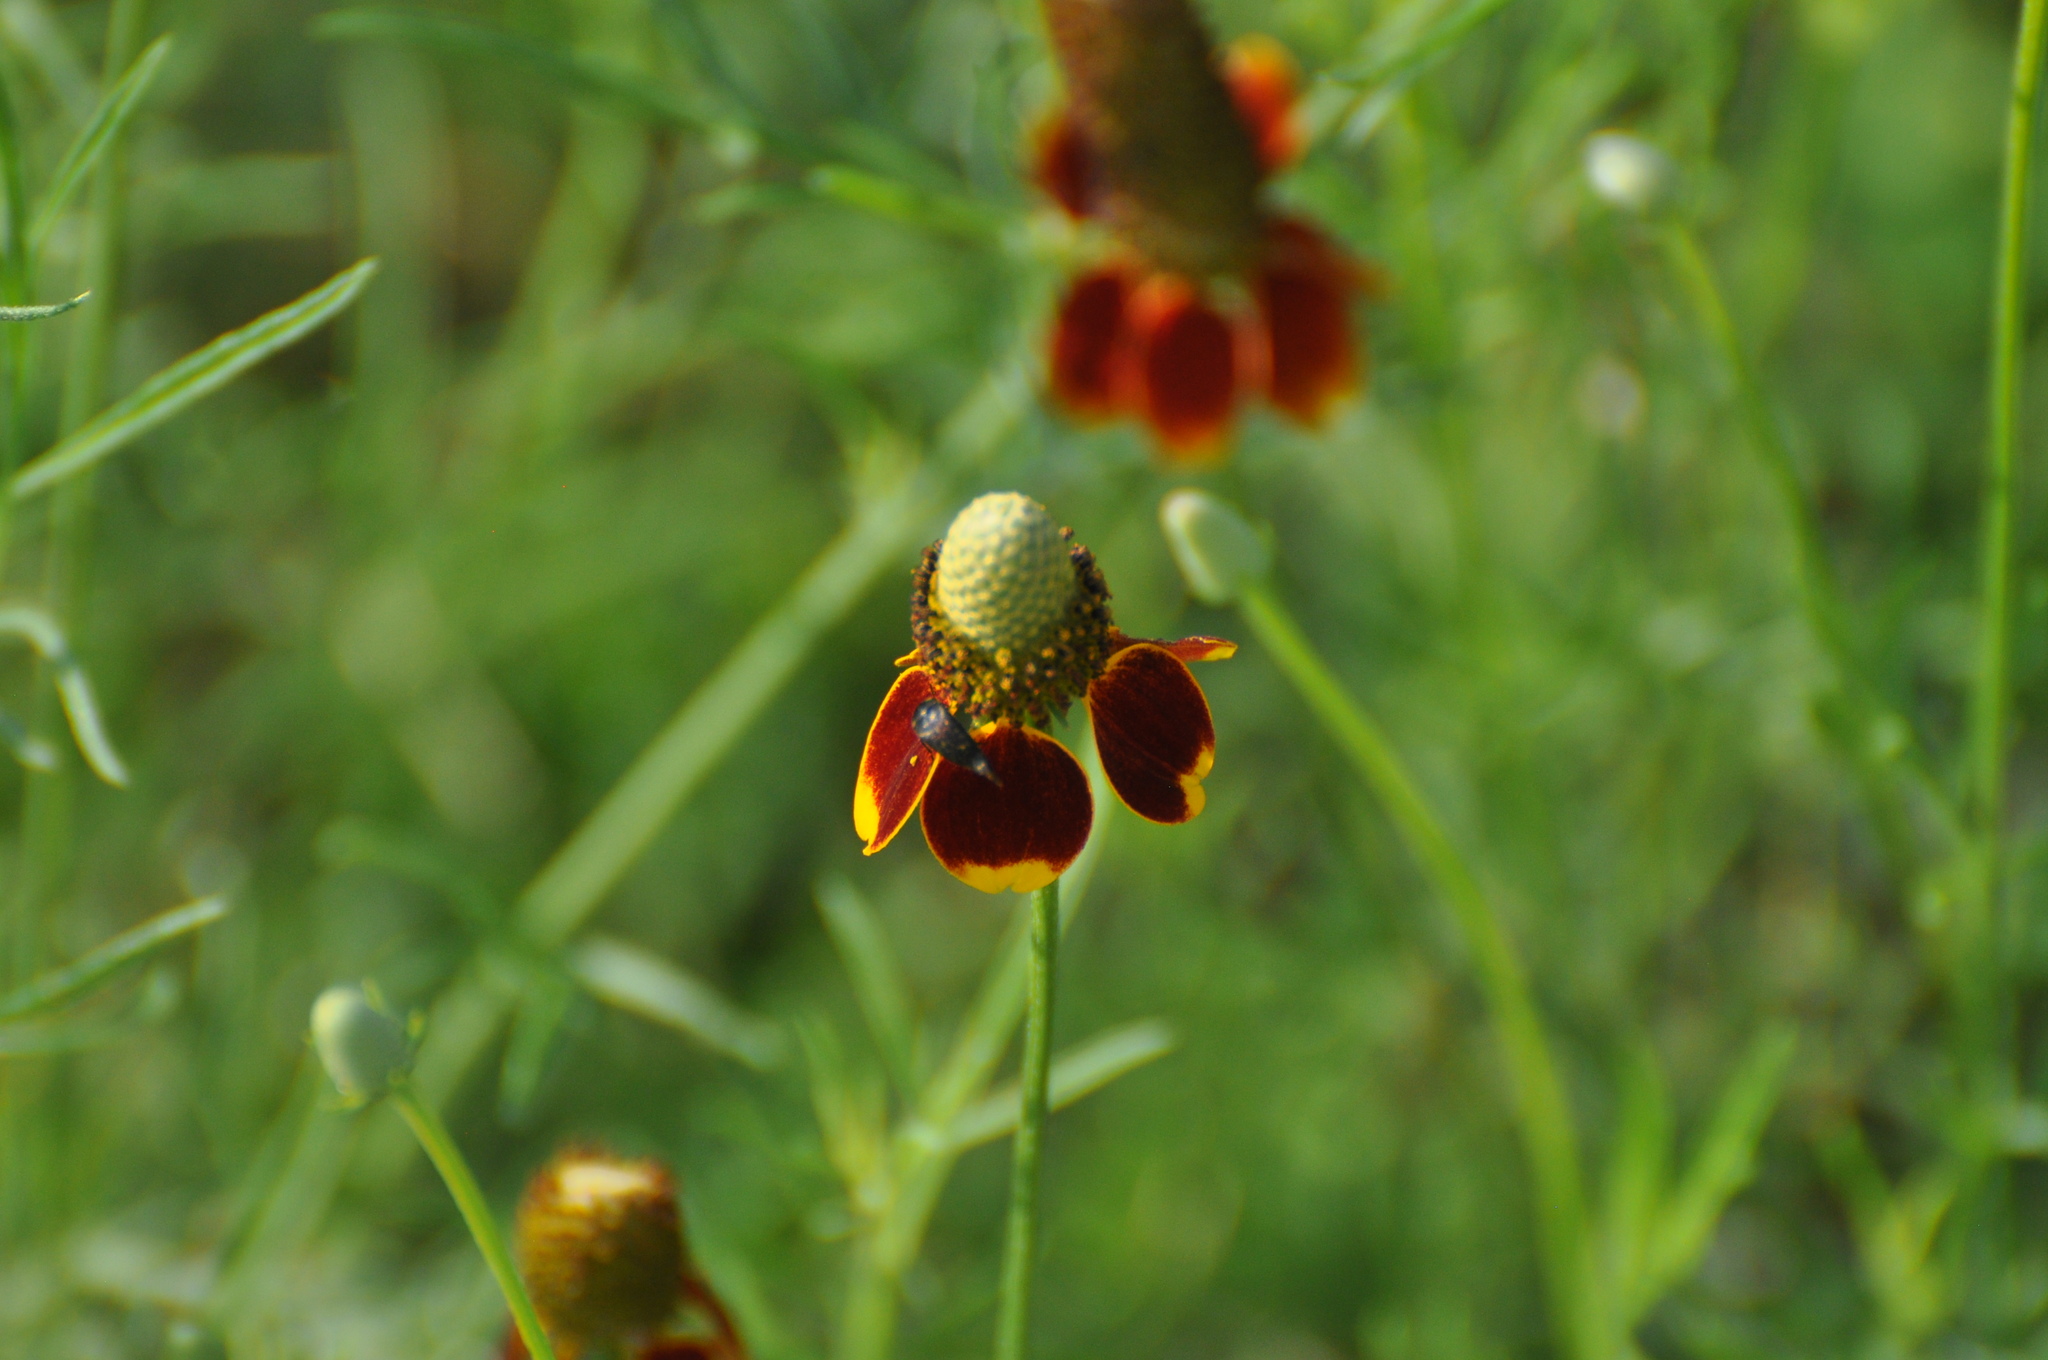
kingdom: Plantae
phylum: Tracheophyta
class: Magnoliopsida
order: Asterales
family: Asteraceae
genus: Ratibida
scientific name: Ratibida columnifera
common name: Prairie coneflower
